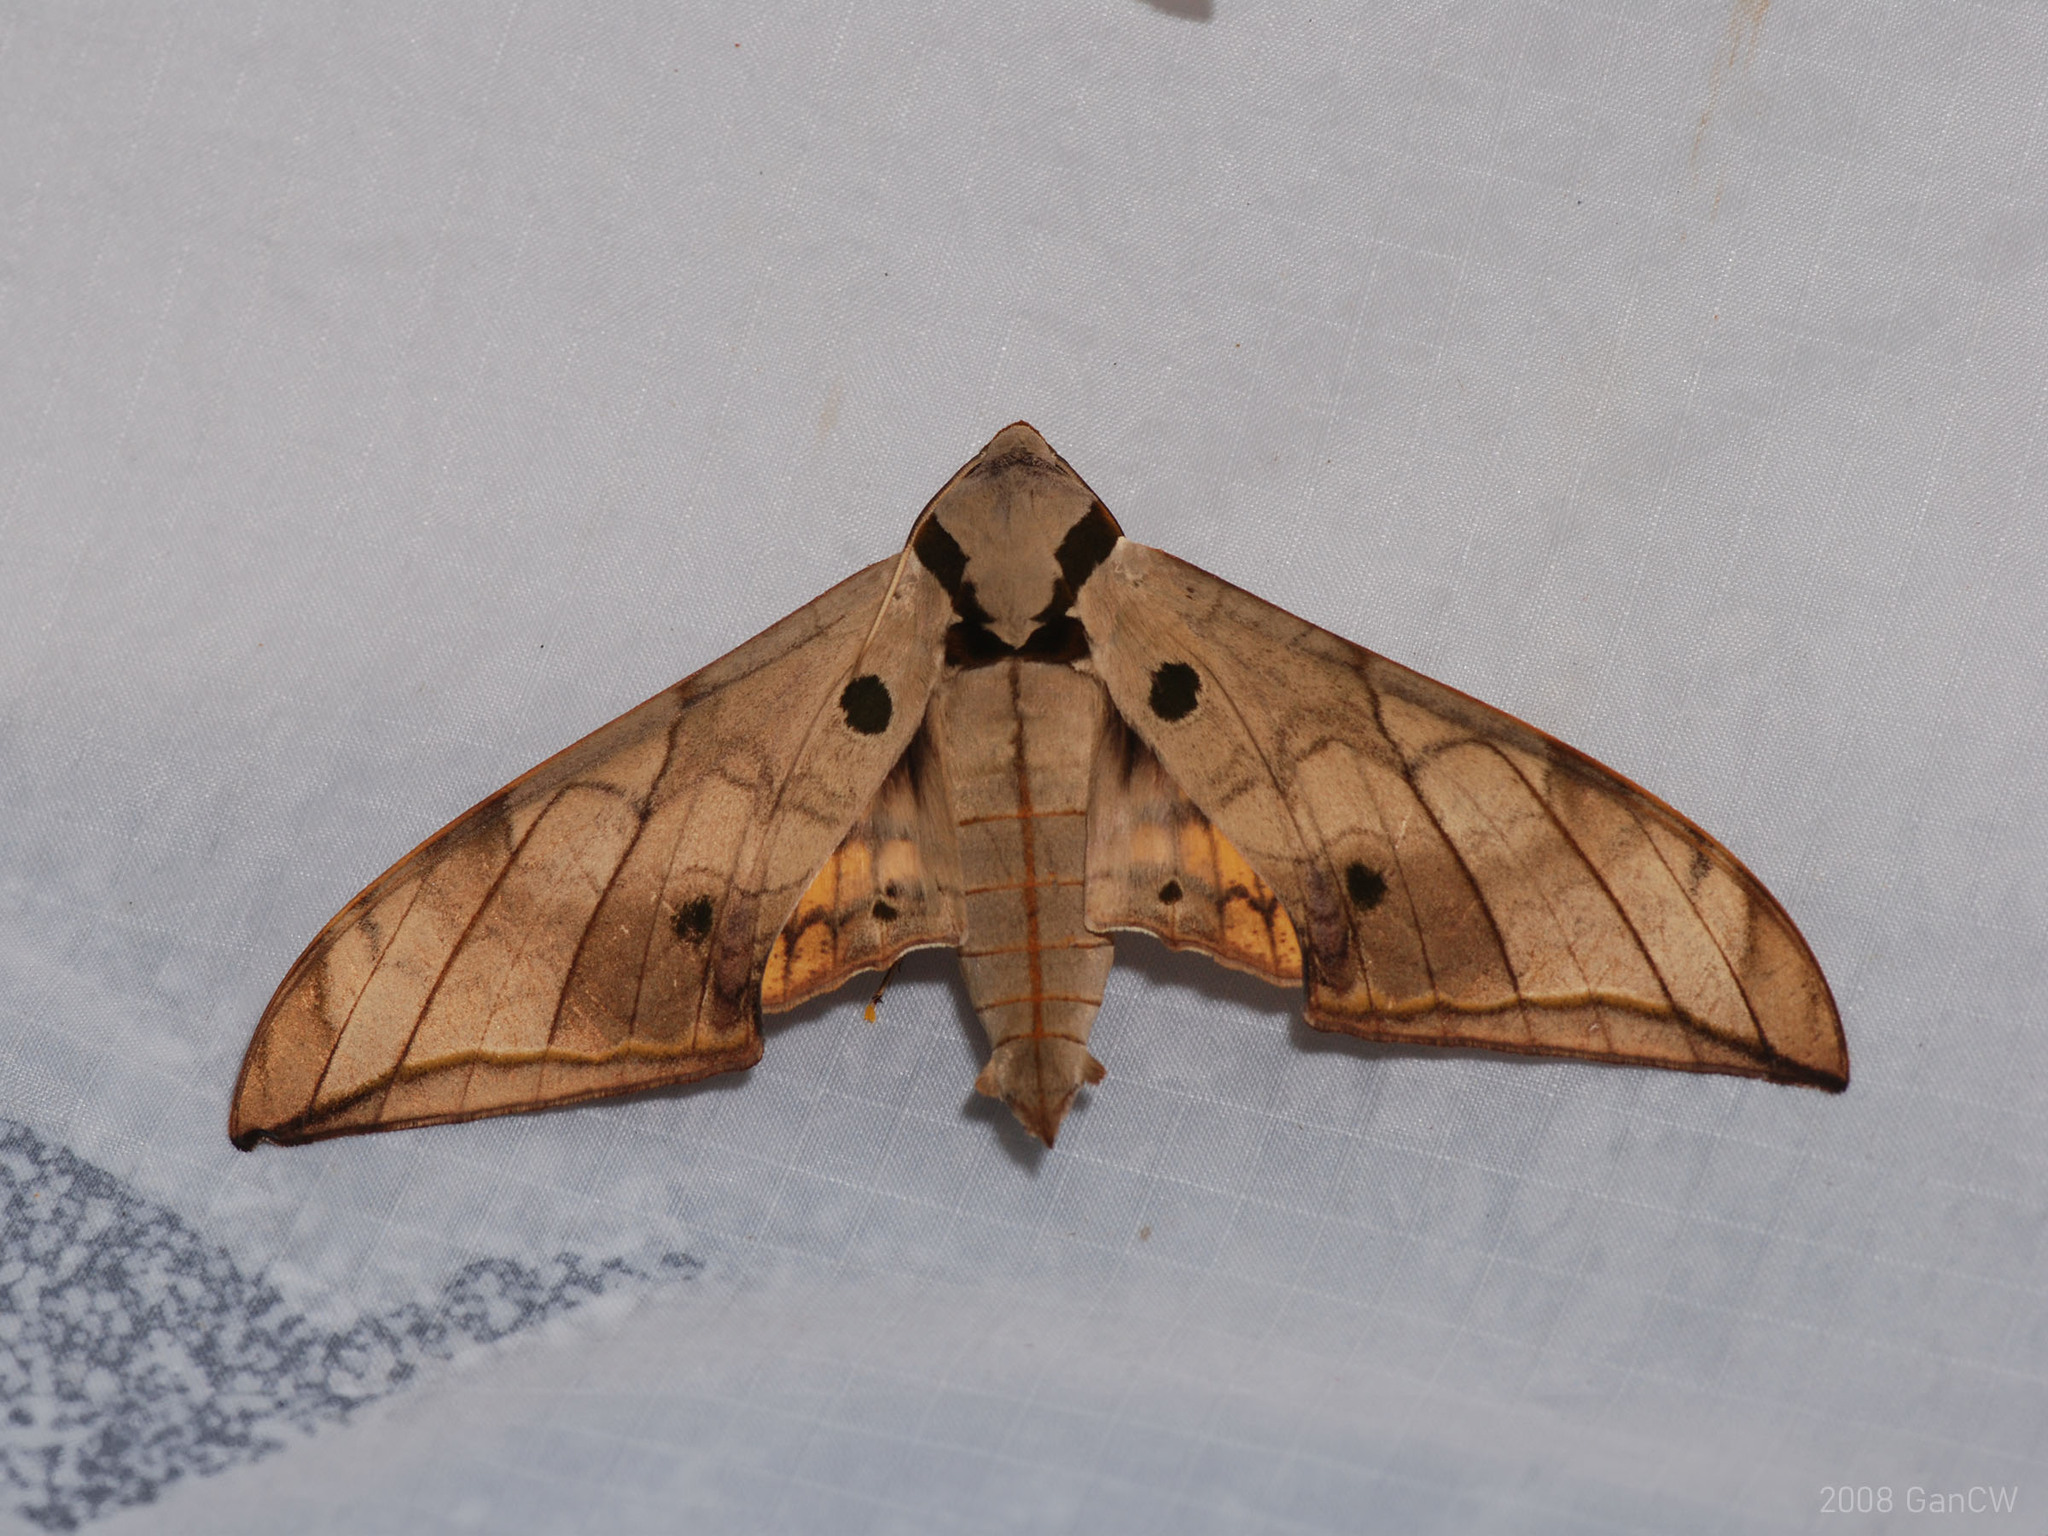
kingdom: Animalia
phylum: Arthropoda
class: Insecta
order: Lepidoptera
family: Sphingidae
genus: Ambulyx
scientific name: Ambulyx substrigilis
